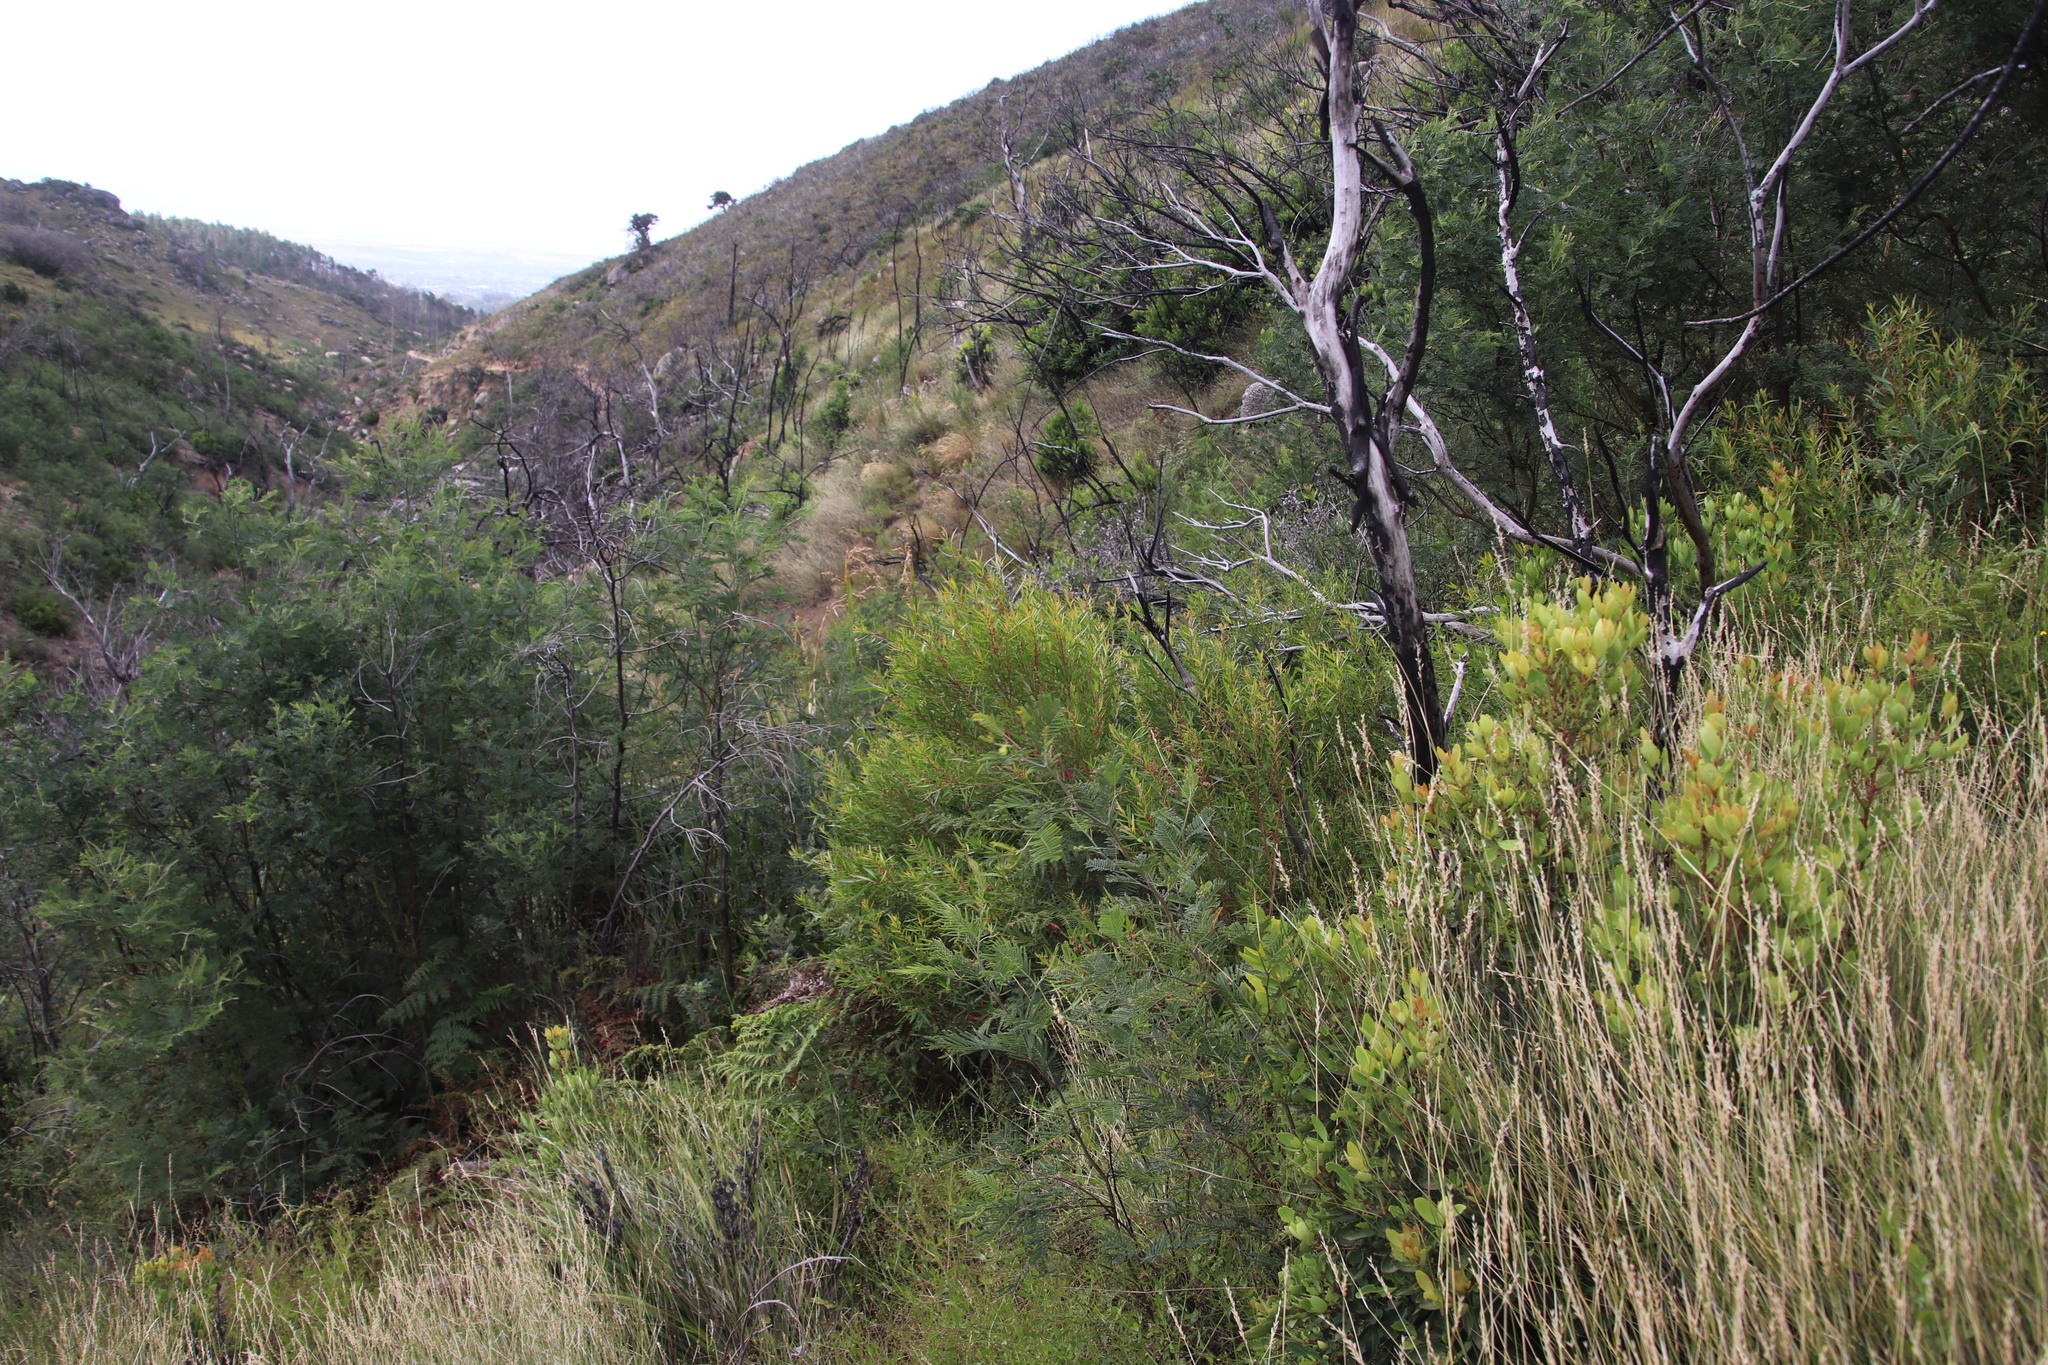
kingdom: Plantae
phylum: Tracheophyta
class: Magnoliopsida
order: Myrtales
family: Myrtaceae
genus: Callistemon
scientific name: Callistemon lanceolatus
